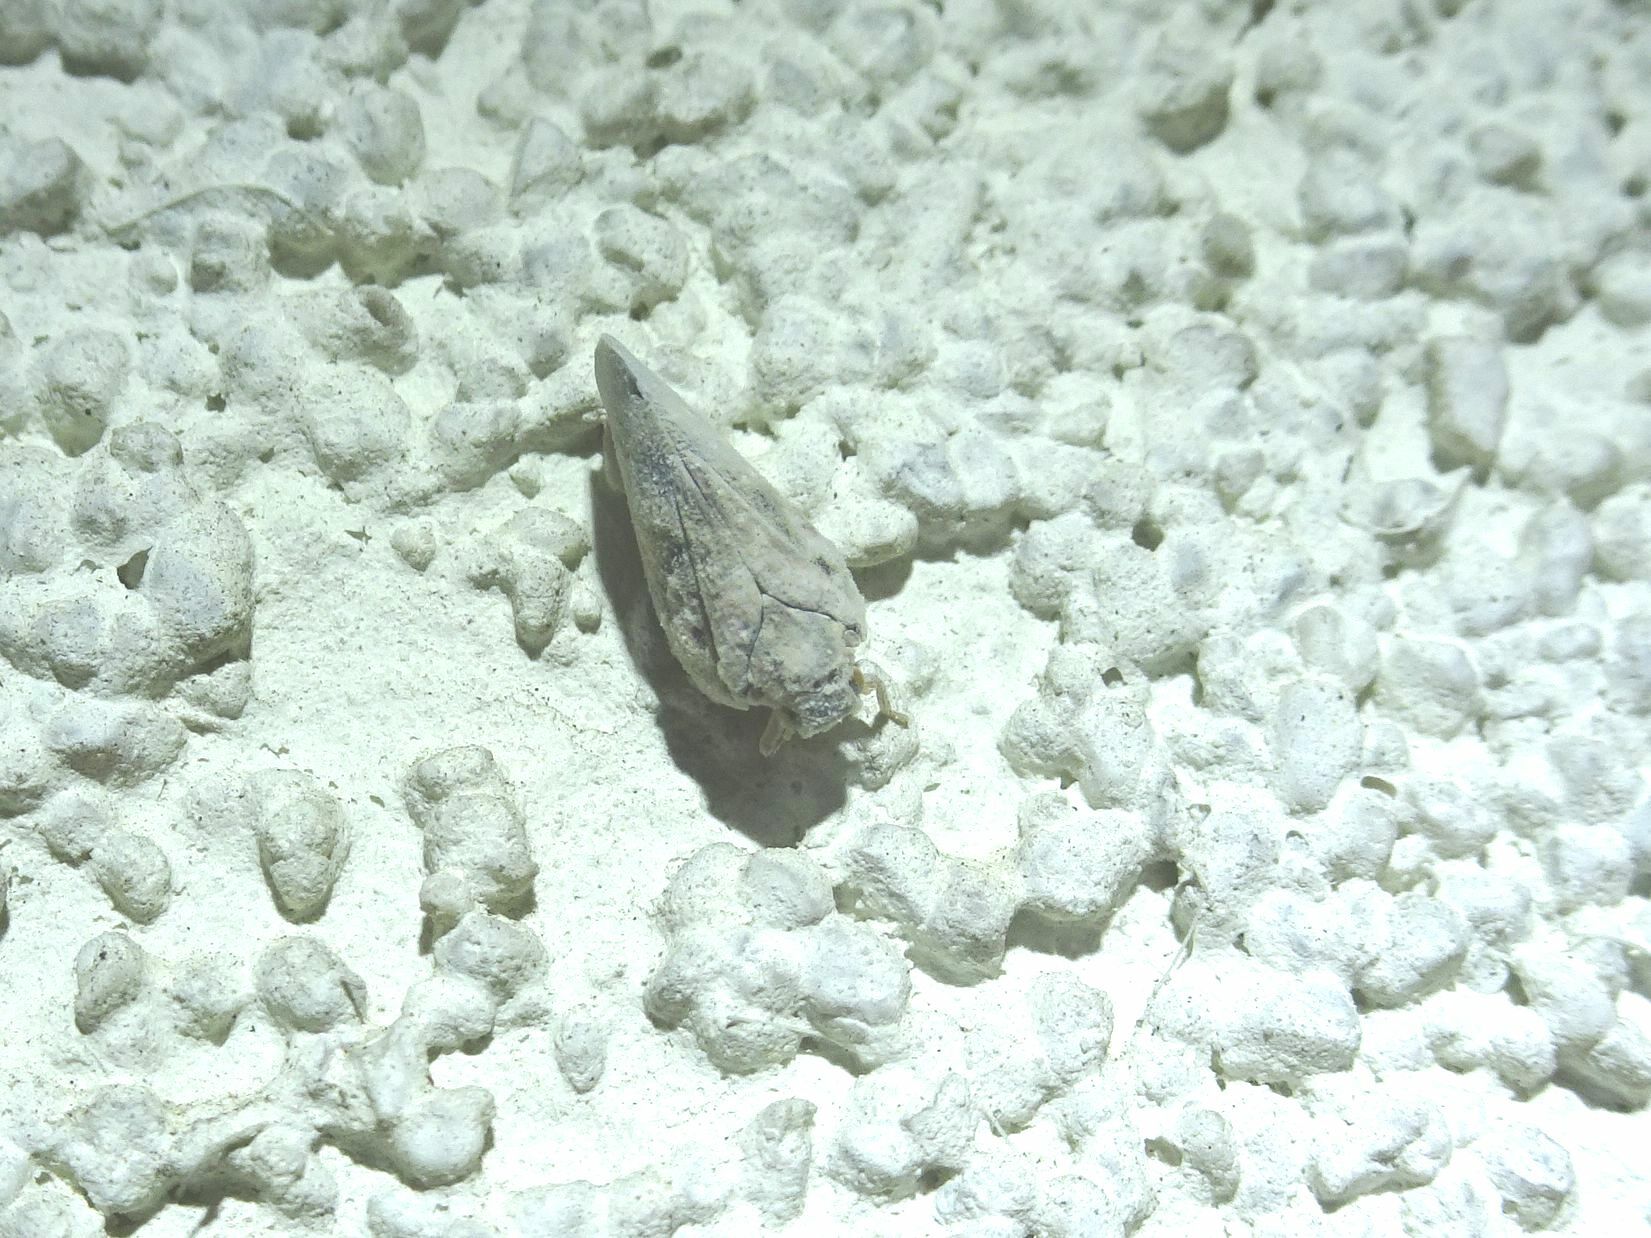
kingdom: Animalia
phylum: Arthropoda
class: Insecta
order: Hemiptera
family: Flatidae
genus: Metcalfa
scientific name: Metcalfa pruinosa
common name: Citrus flatid planthopper
